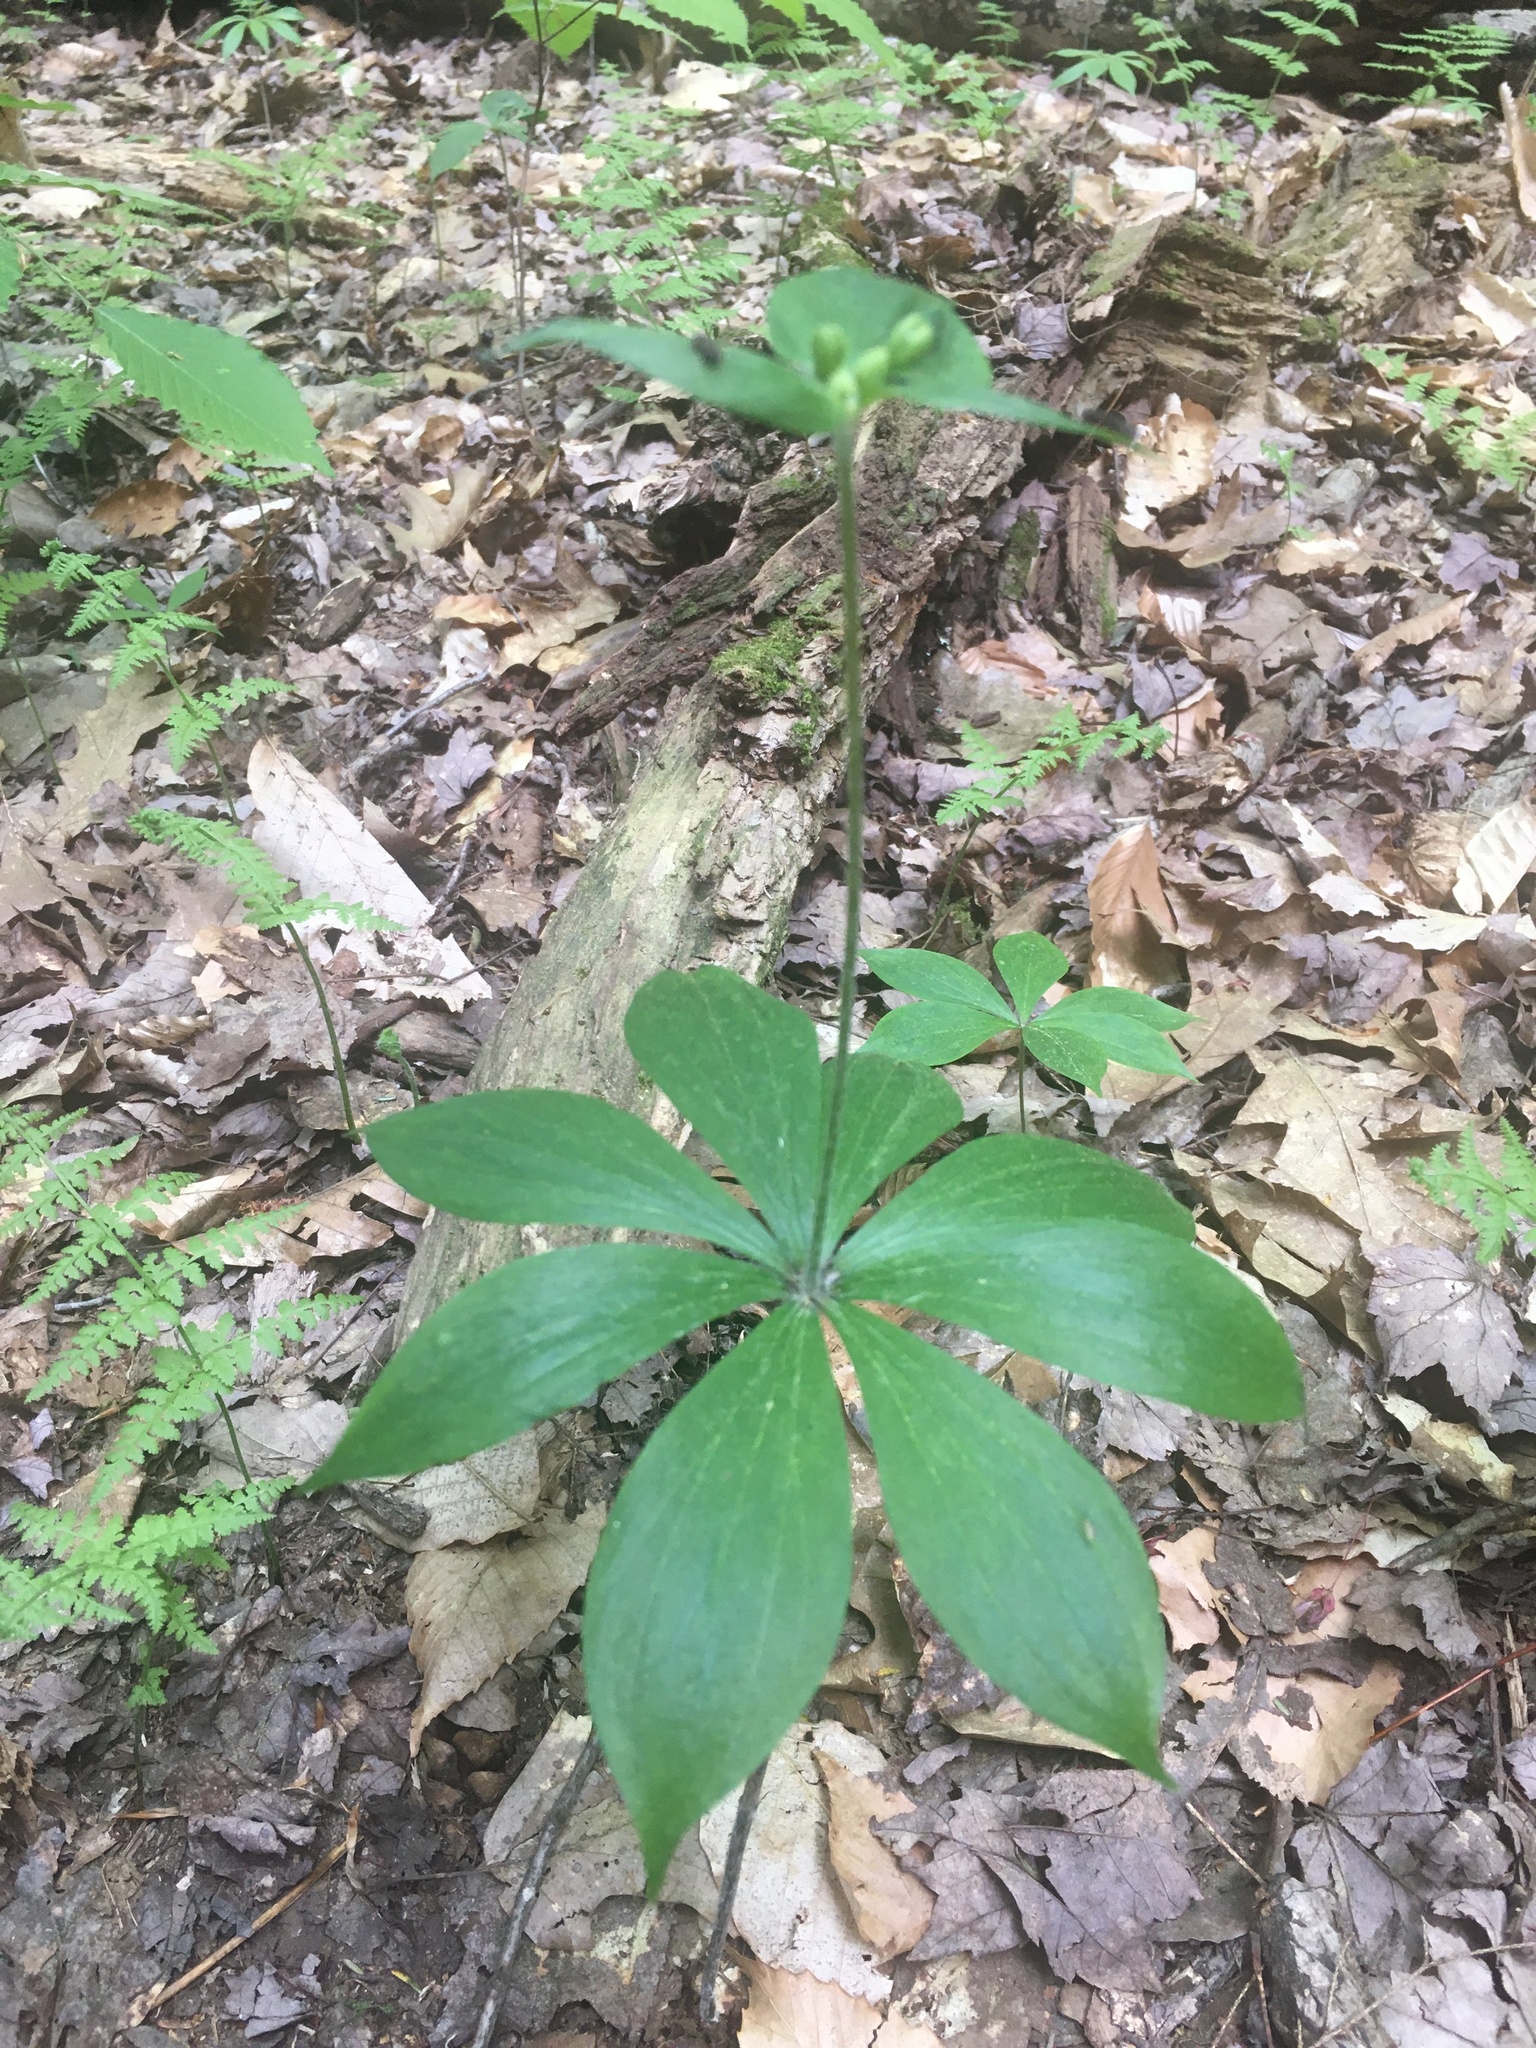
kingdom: Plantae
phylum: Tracheophyta
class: Liliopsida
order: Liliales
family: Liliaceae
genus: Medeola
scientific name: Medeola virginiana
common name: Indian cucumber-root
